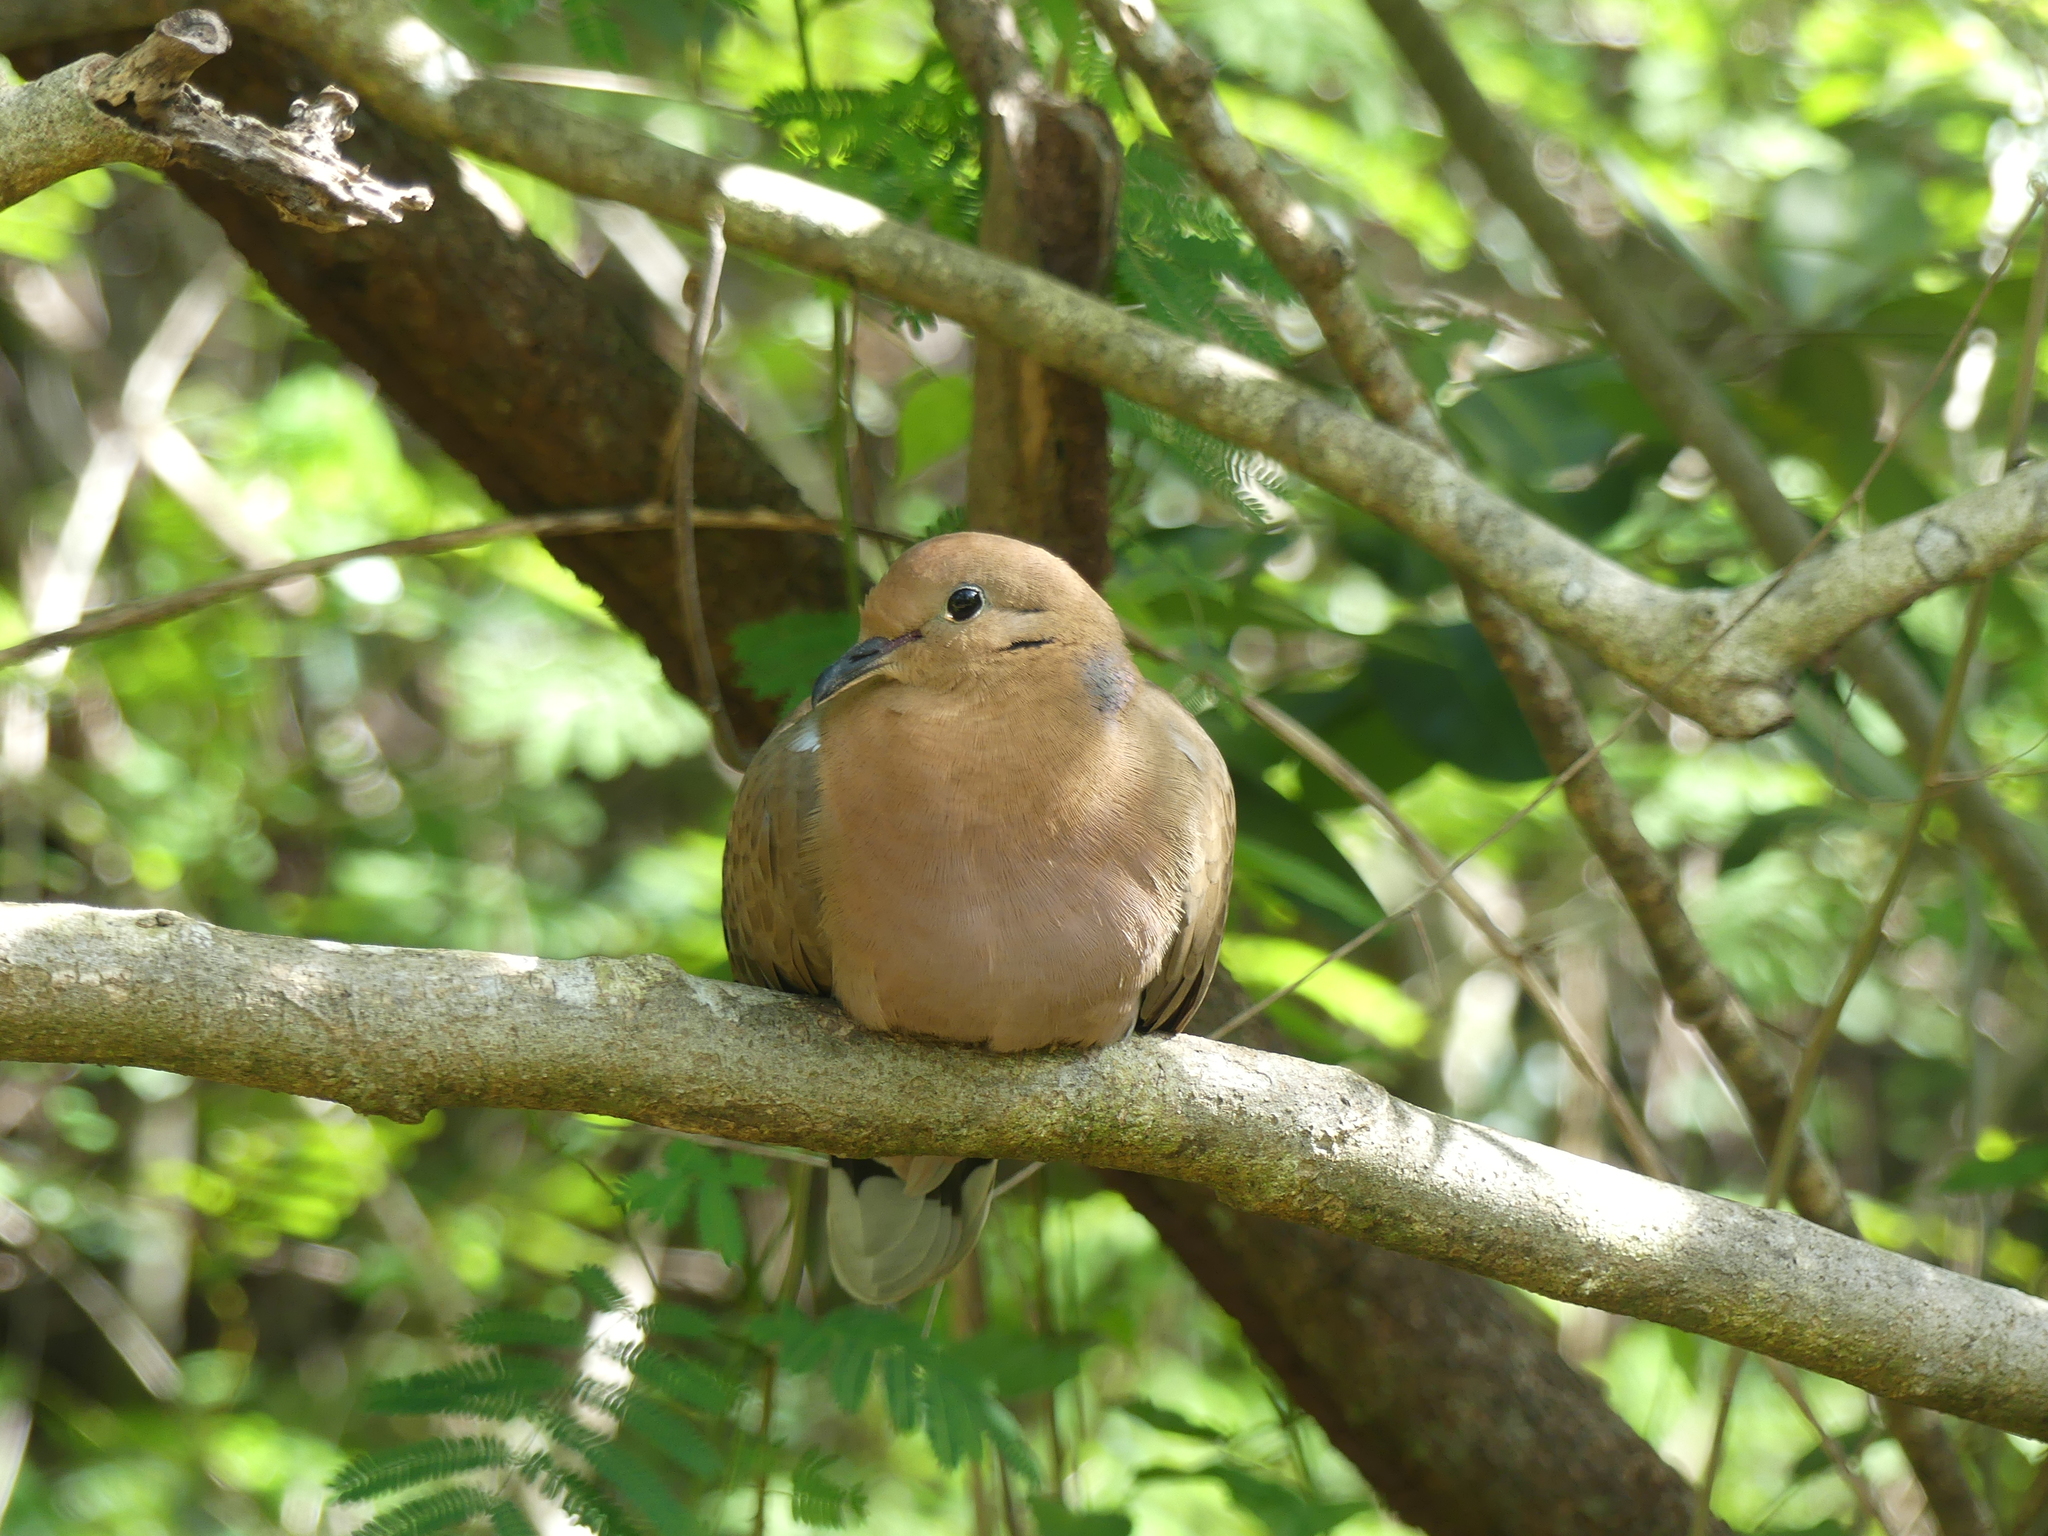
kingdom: Animalia
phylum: Chordata
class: Aves
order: Columbiformes
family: Columbidae
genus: Zenaida
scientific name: Zenaida aurita
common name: Zenaida dove
